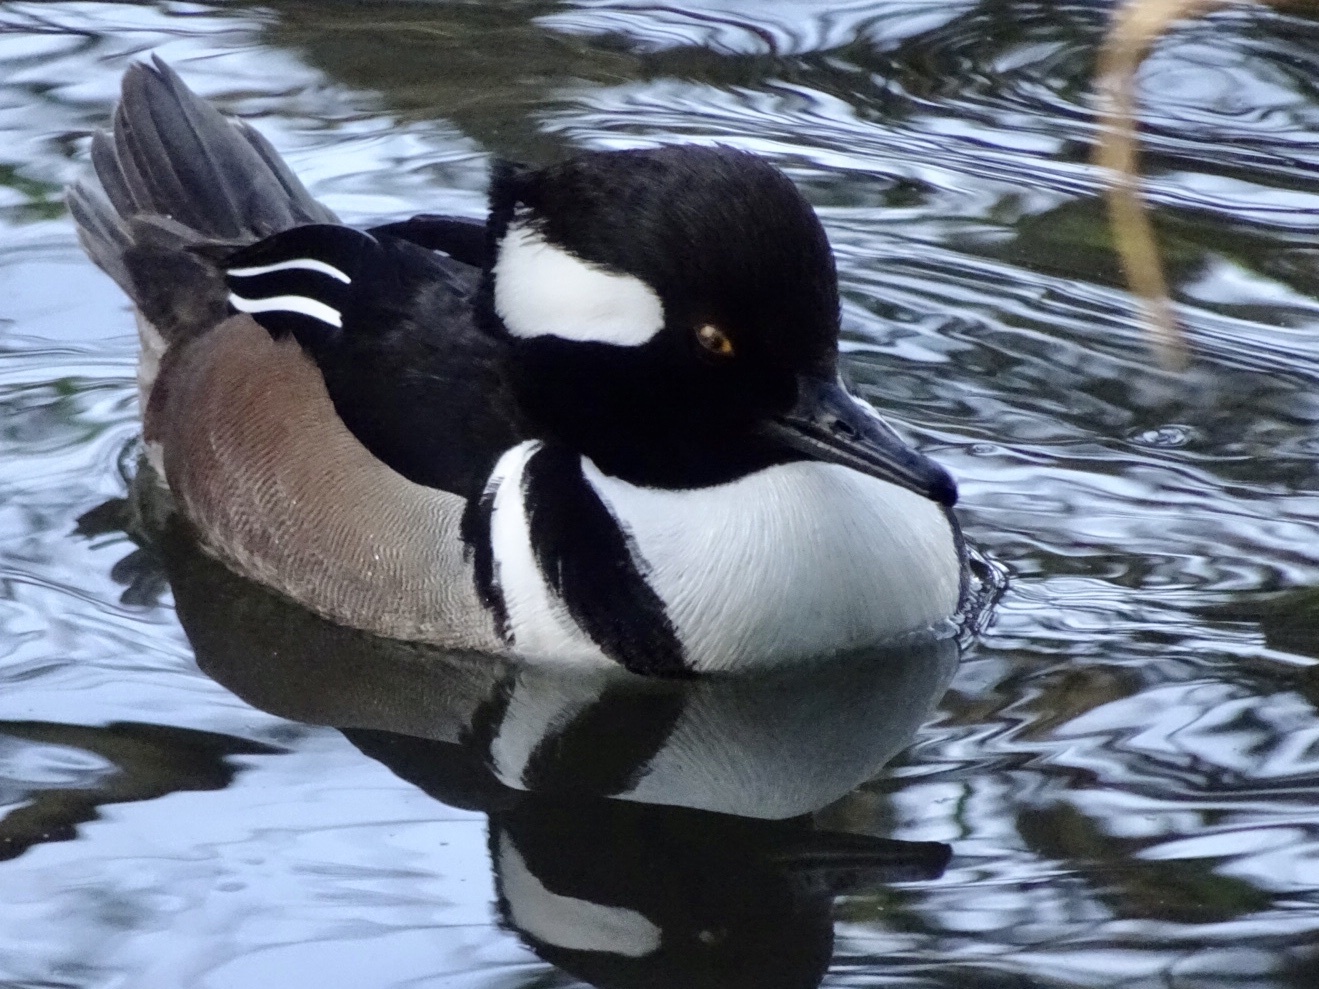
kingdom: Animalia
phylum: Chordata
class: Aves
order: Anseriformes
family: Anatidae
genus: Lophodytes
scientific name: Lophodytes cucullatus
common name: Hooded merganser
